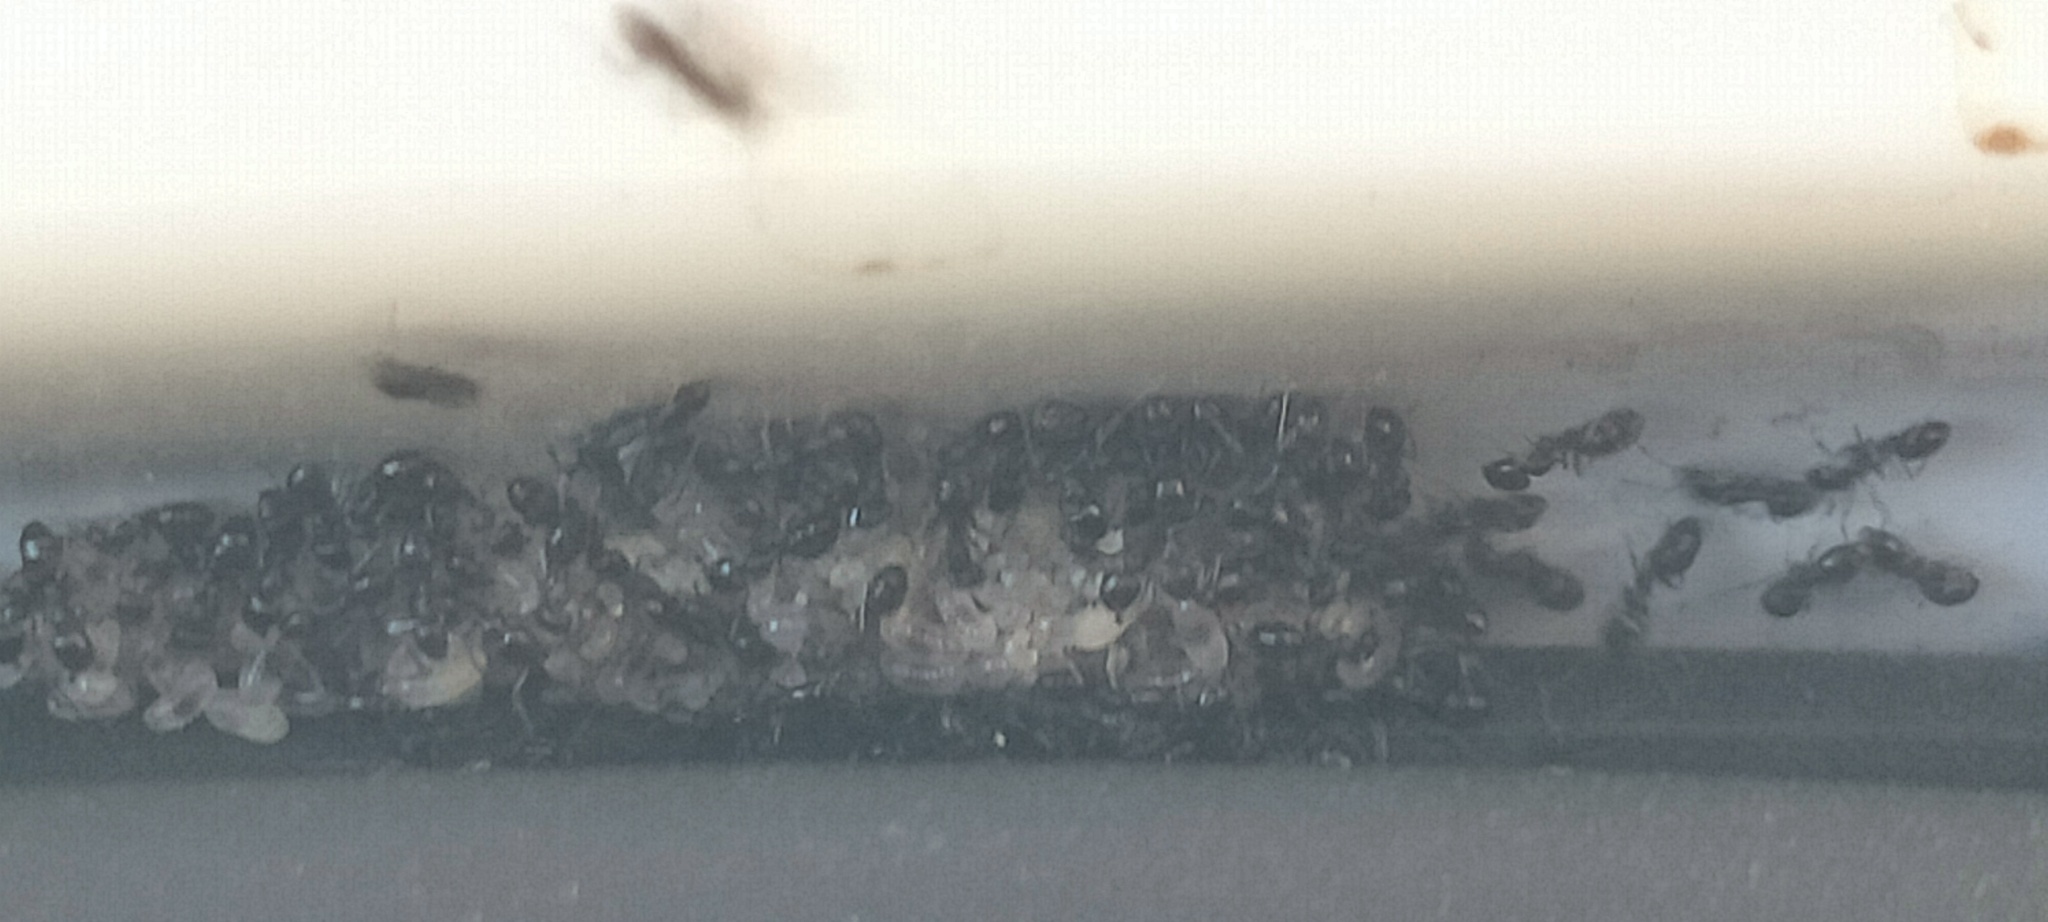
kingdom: Animalia
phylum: Arthropoda
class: Insecta
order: Hymenoptera
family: Formicidae
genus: Ochetellus
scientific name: Ochetellus glaber
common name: Ant
